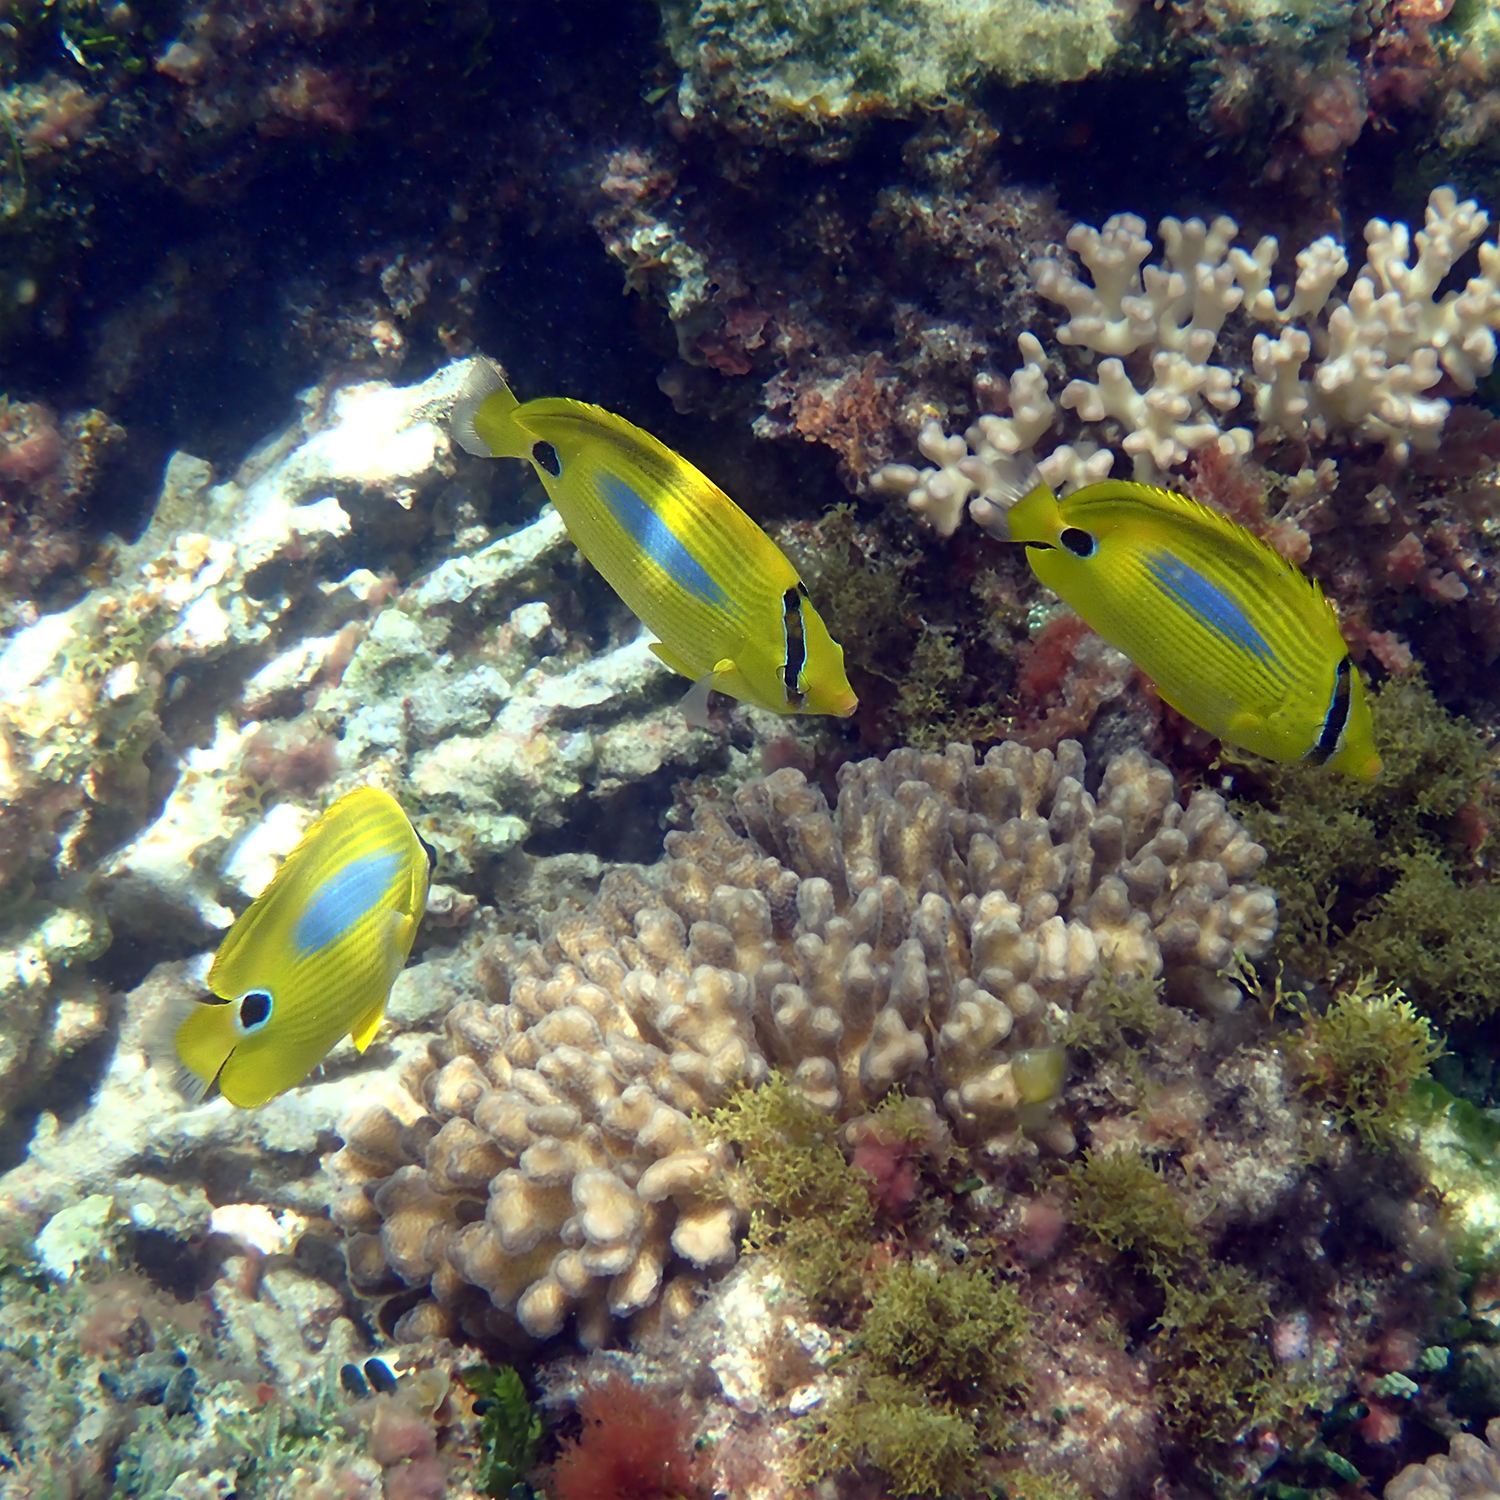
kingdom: Animalia
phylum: Chordata
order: Perciformes
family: Chaetodontidae
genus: Chaetodon
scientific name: Chaetodon plebeius
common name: Bluespot butterflyfish
